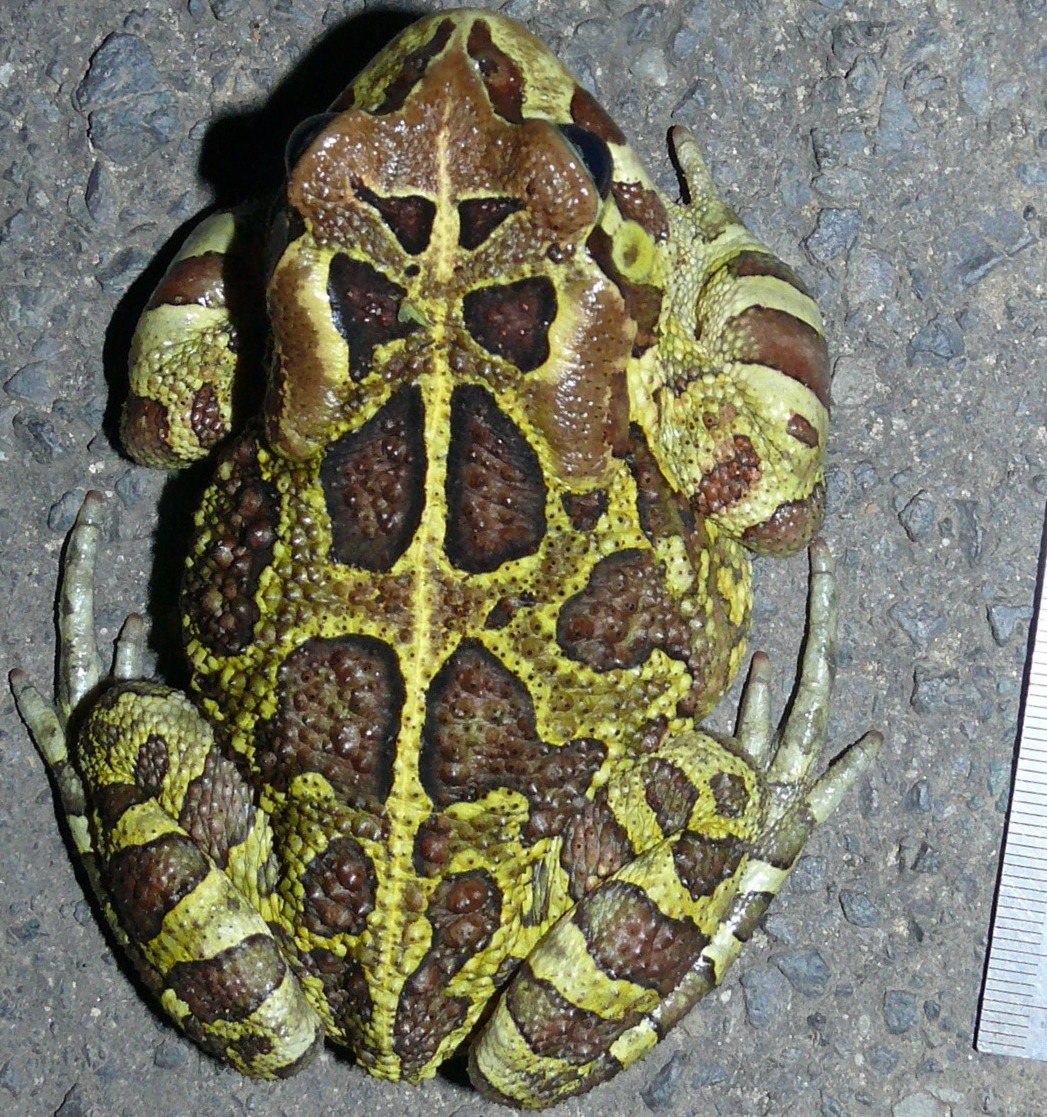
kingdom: Animalia
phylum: Chordata
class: Amphibia
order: Anura
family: Bufonidae
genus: Sclerophrys
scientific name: Sclerophrys pantherina
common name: Panther toad
